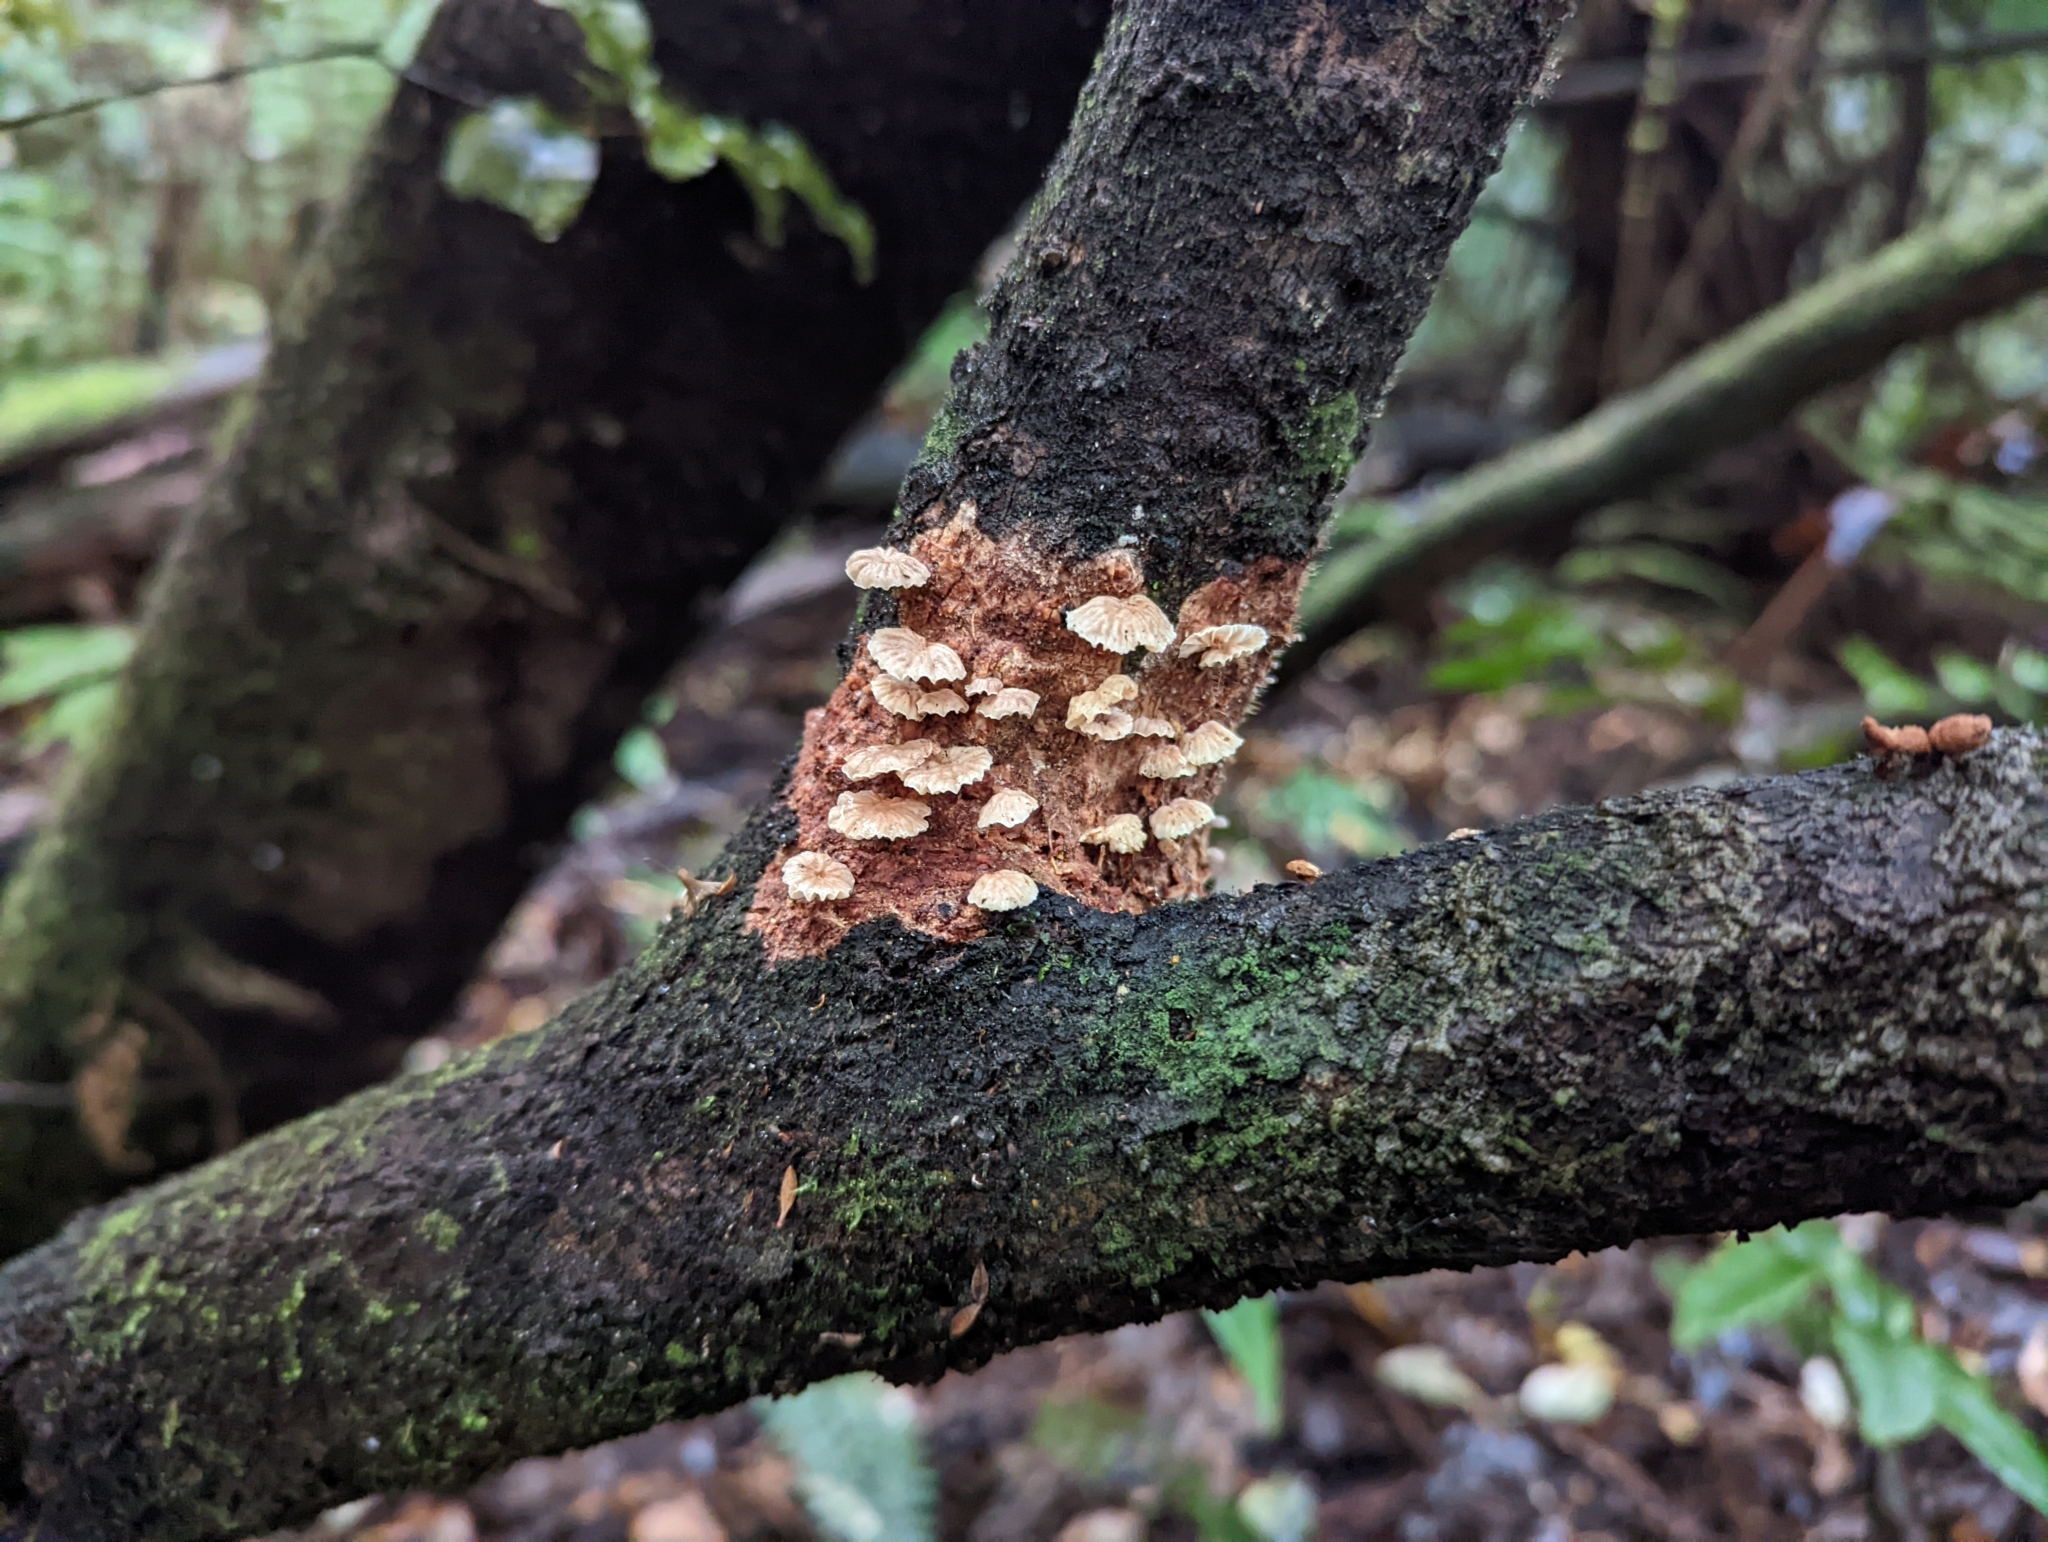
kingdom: Fungi
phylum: Basidiomycota
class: Agaricomycetes
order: Agaricales
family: Omphalotaceae
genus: Gymnopus
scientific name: Gymnopus ceraceicola
